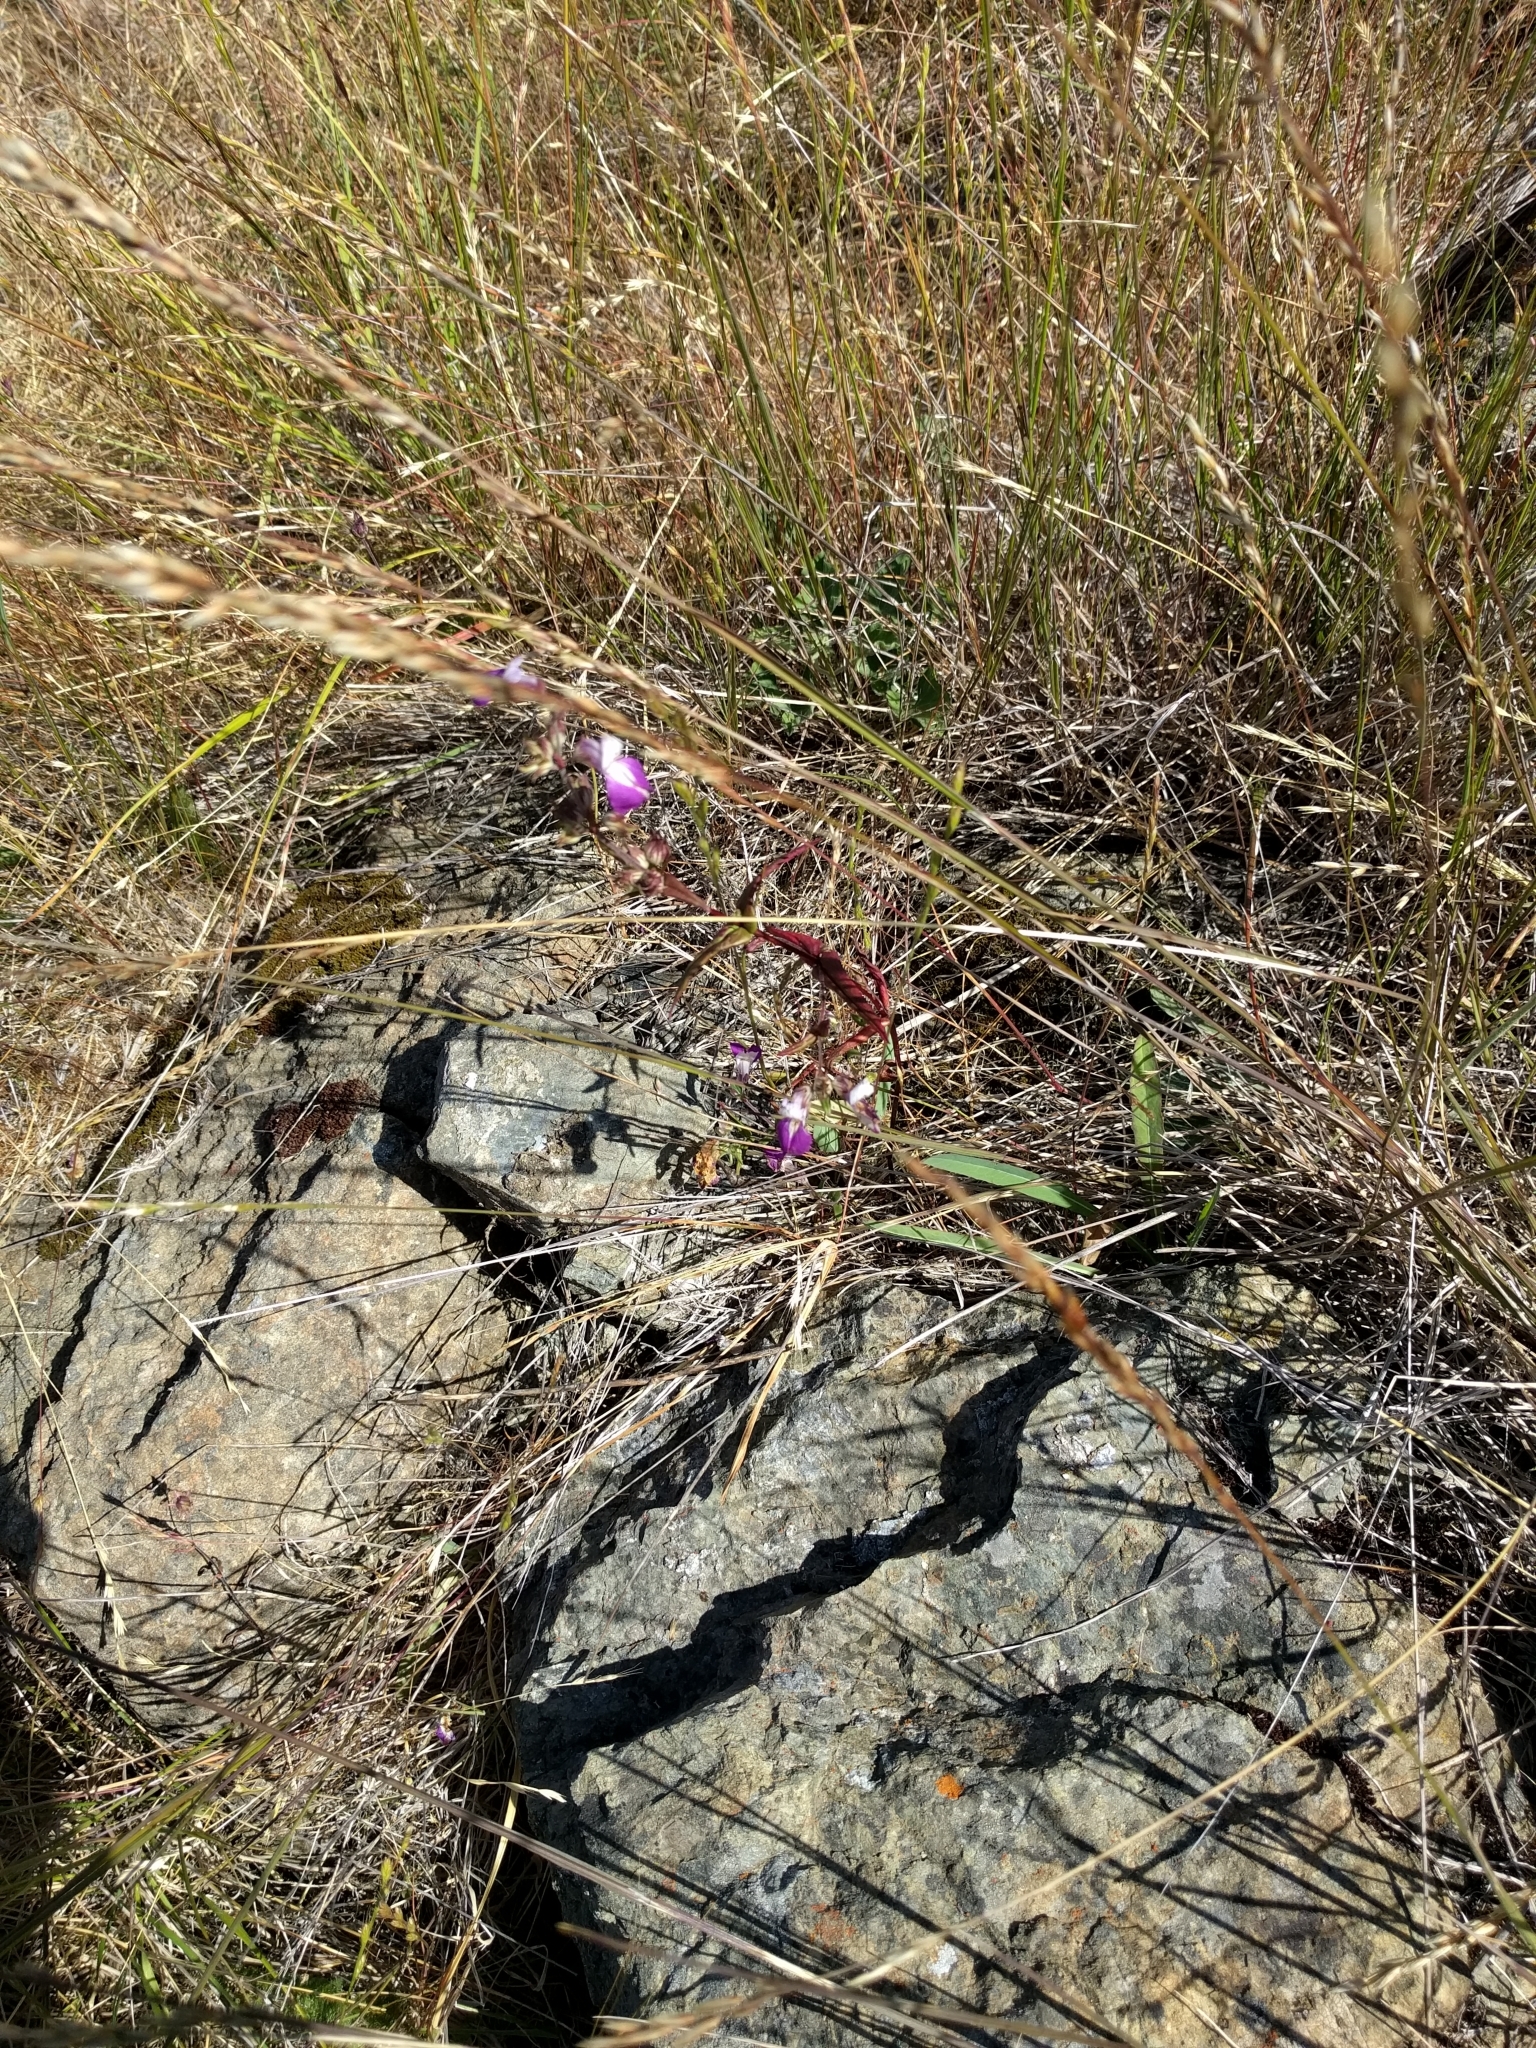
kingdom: Plantae
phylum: Tracheophyta
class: Magnoliopsida
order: Lamiales
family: Plantaginaceae
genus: Collinsia
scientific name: Collinsia sparsiflora
